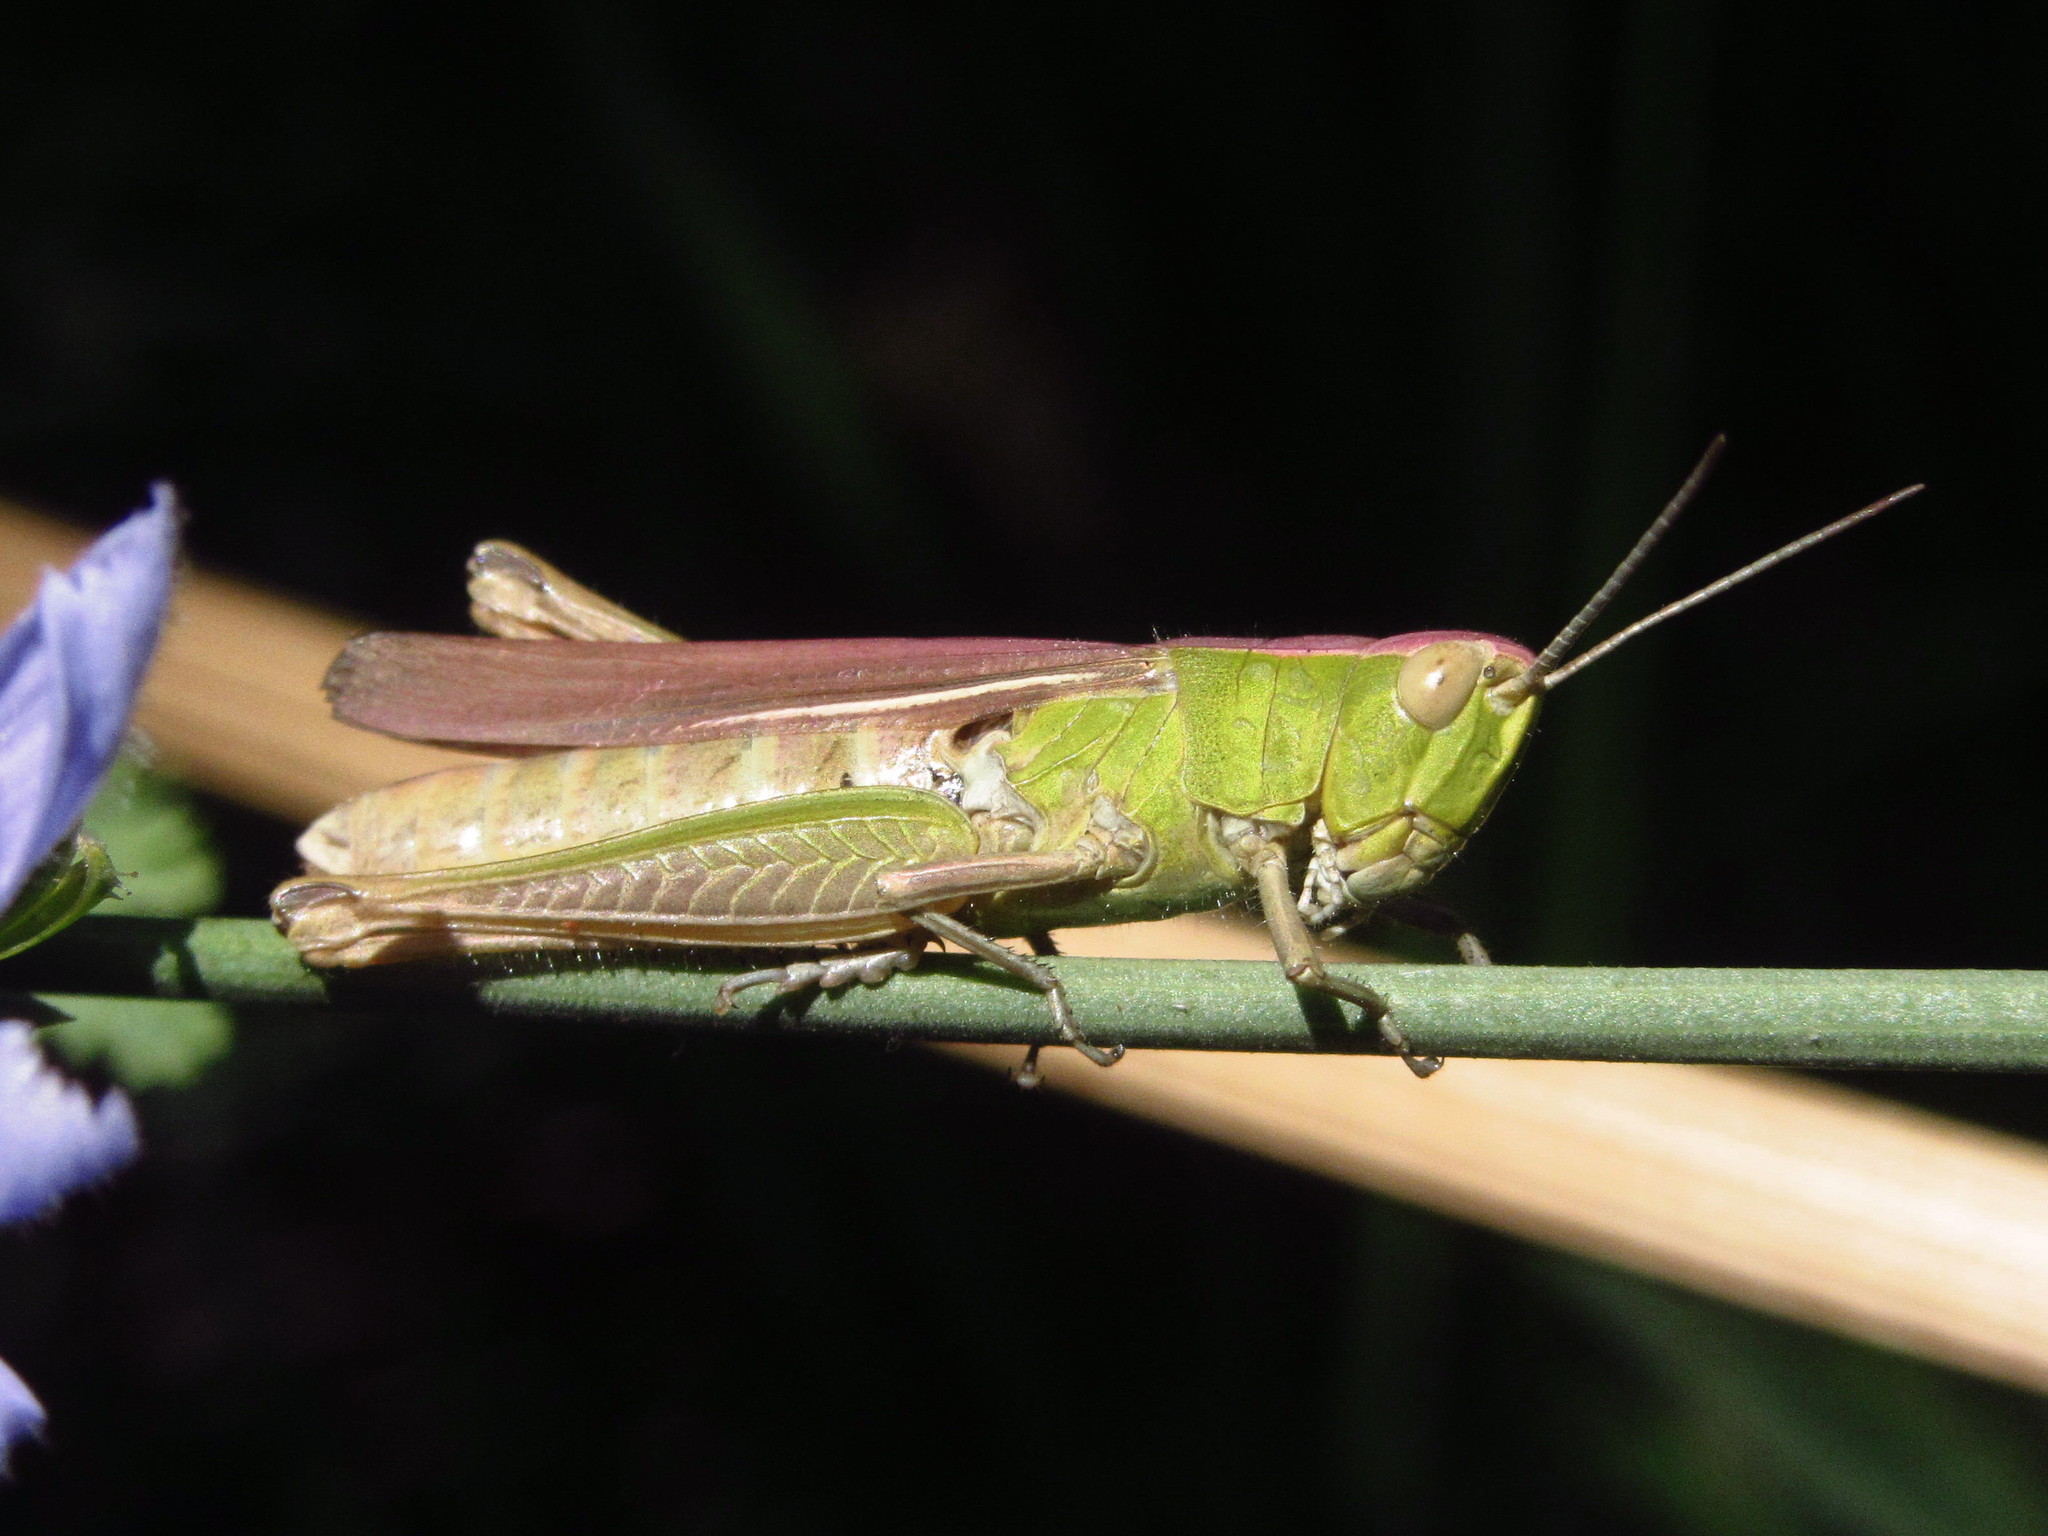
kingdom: Animalia
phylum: Arthropoda
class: Insecta
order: Orthoptera
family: Acrididae
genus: Chorthippus
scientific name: Chorthippus dichrous
